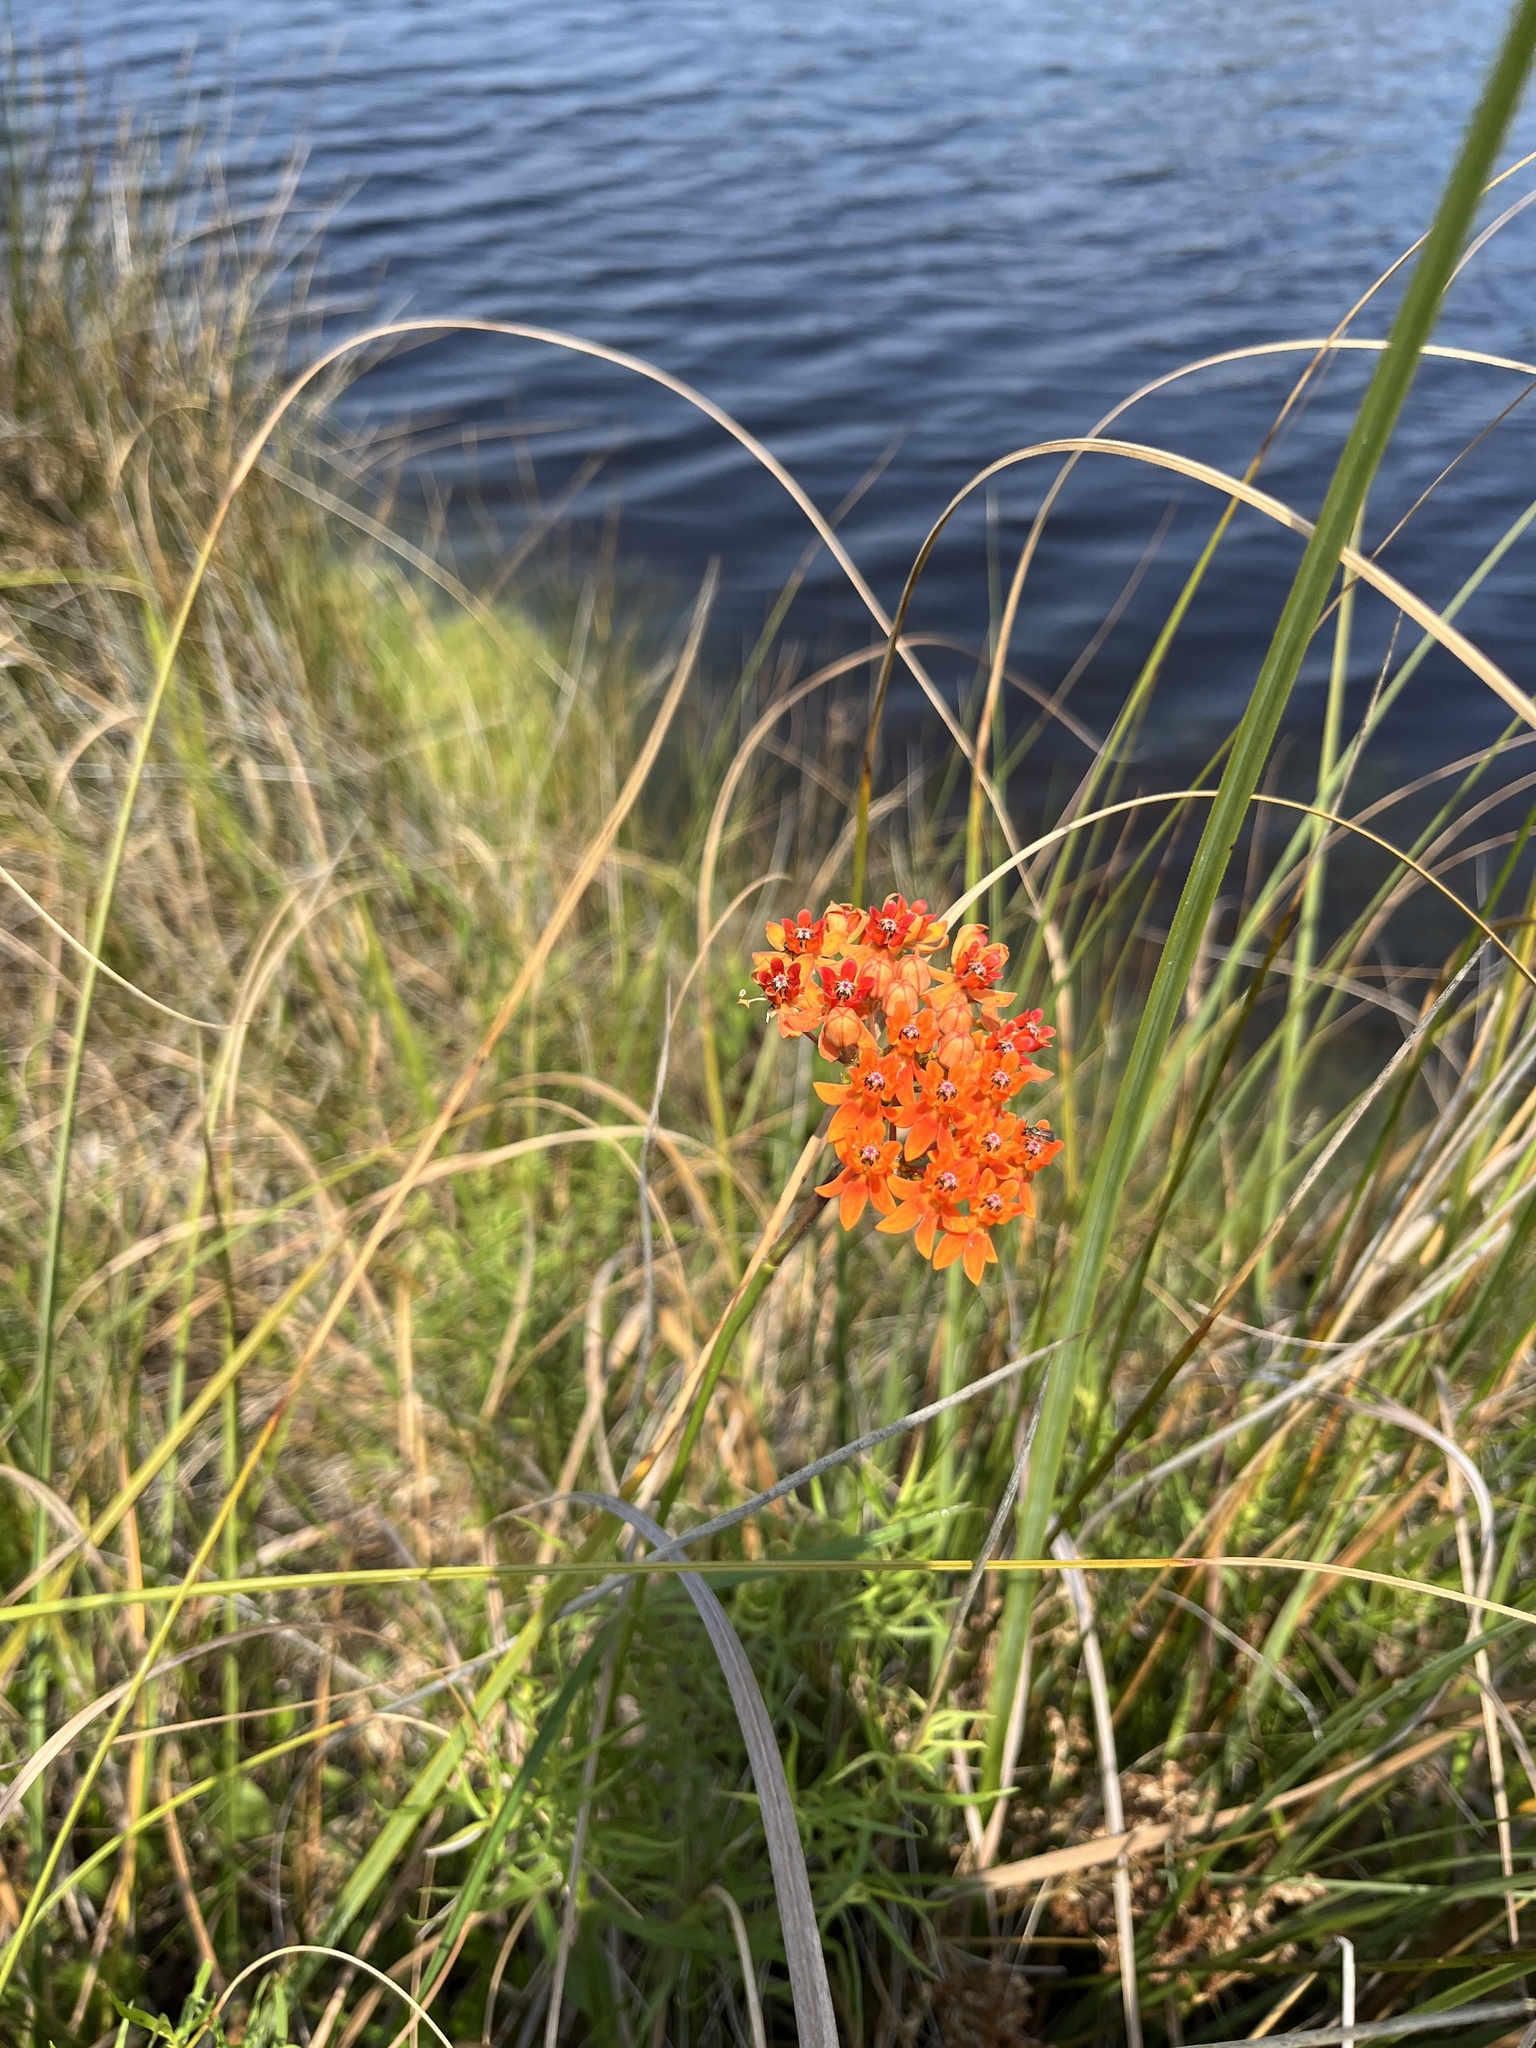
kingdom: Plantae
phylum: Tracheophyta
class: Magnoliopsida
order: Gentianales
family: Apocynaceae
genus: Asclepias
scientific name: Asclepias lanceolata
